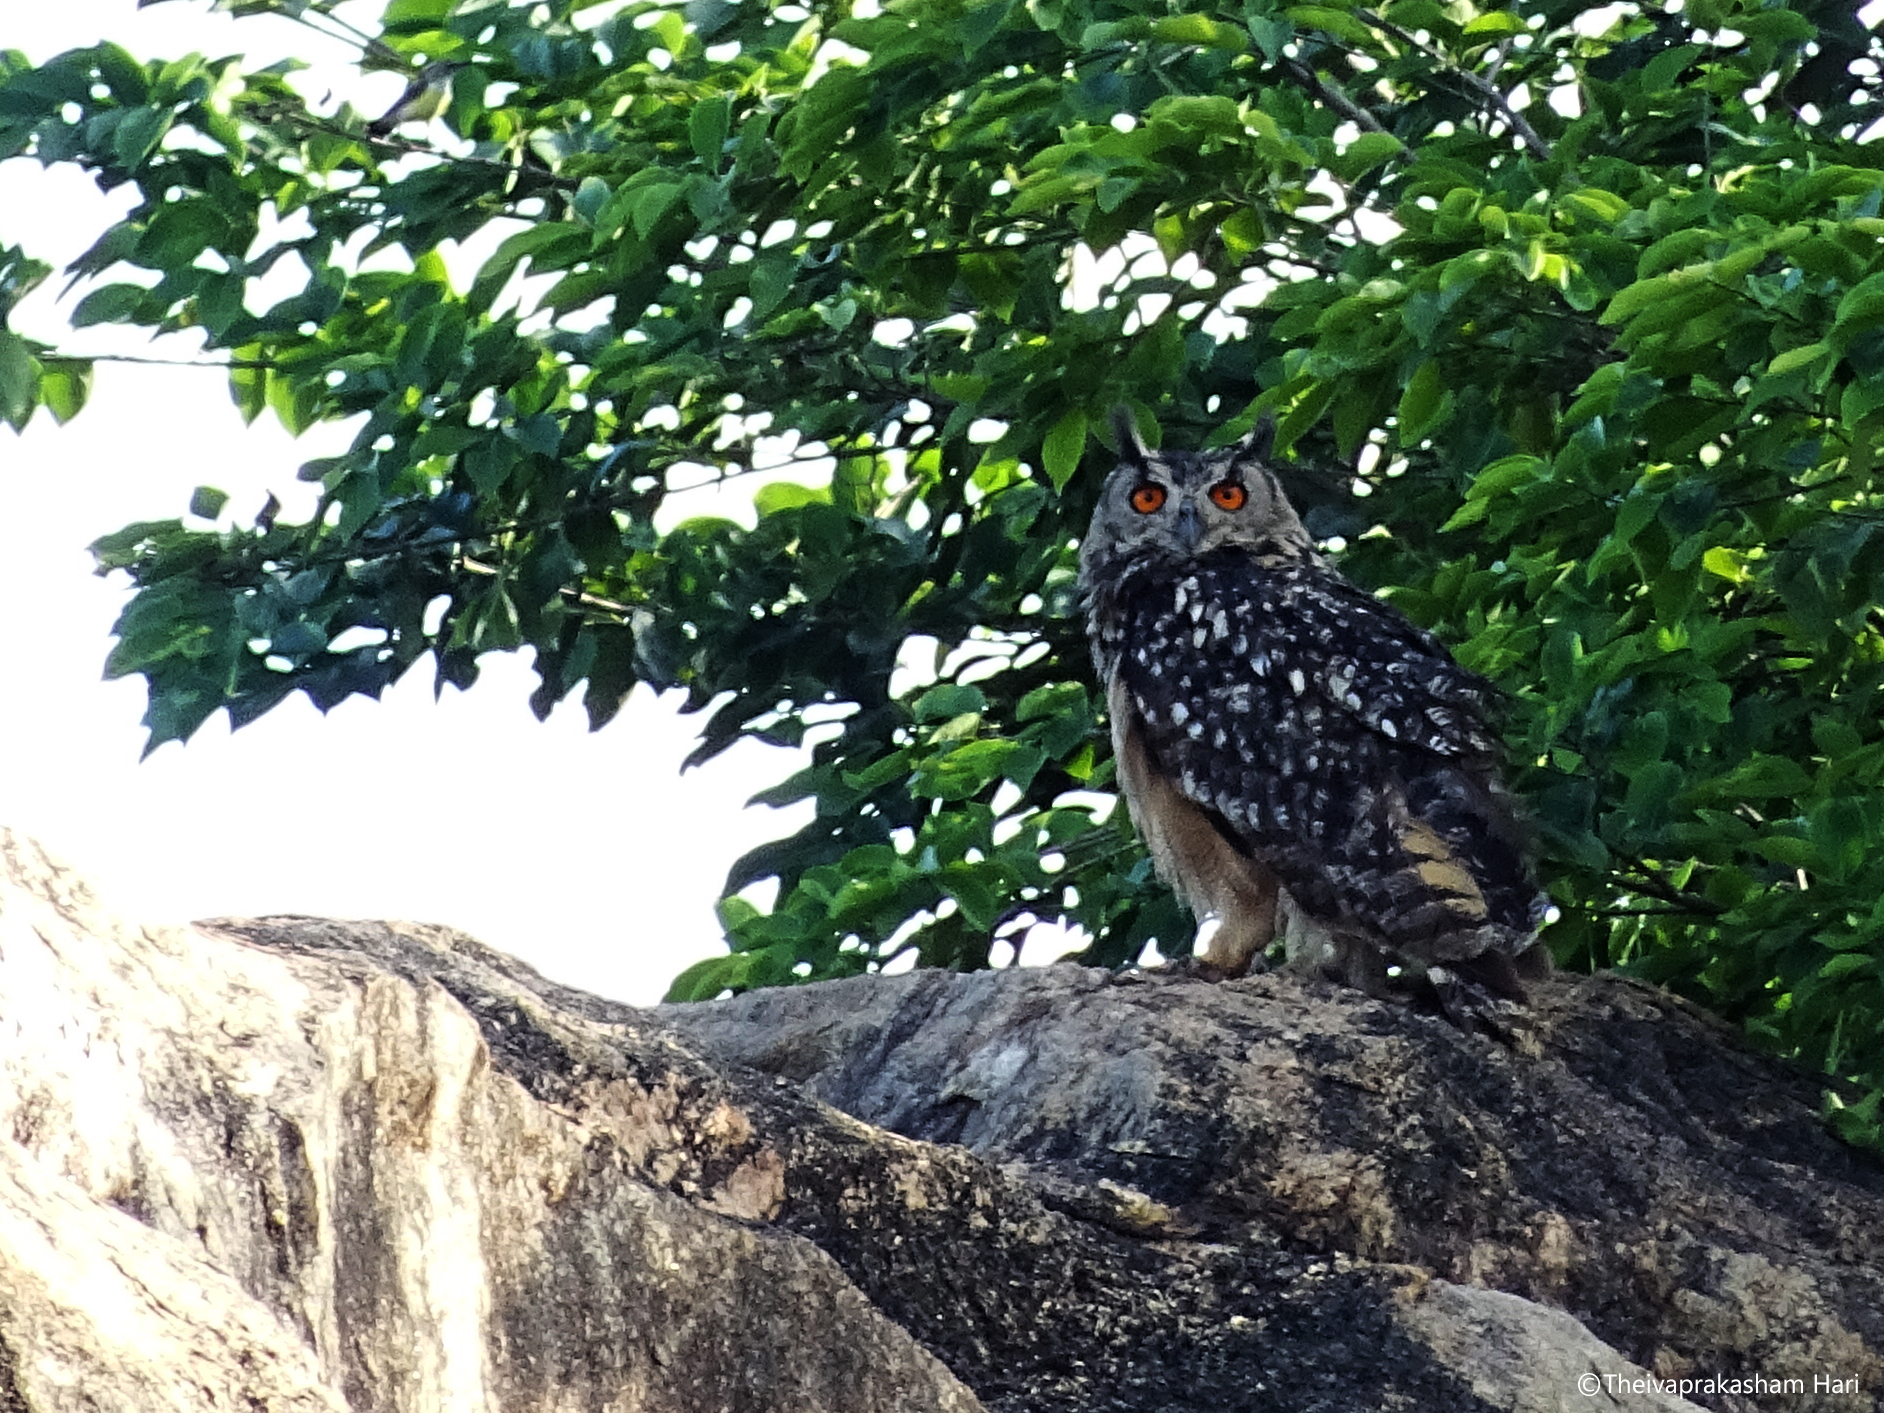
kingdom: Animalia
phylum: Chordata
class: Aves
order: Strigiformes
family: Strigidae
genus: Bubo
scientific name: Bubo bengalensis
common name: Indian eagle-owl
